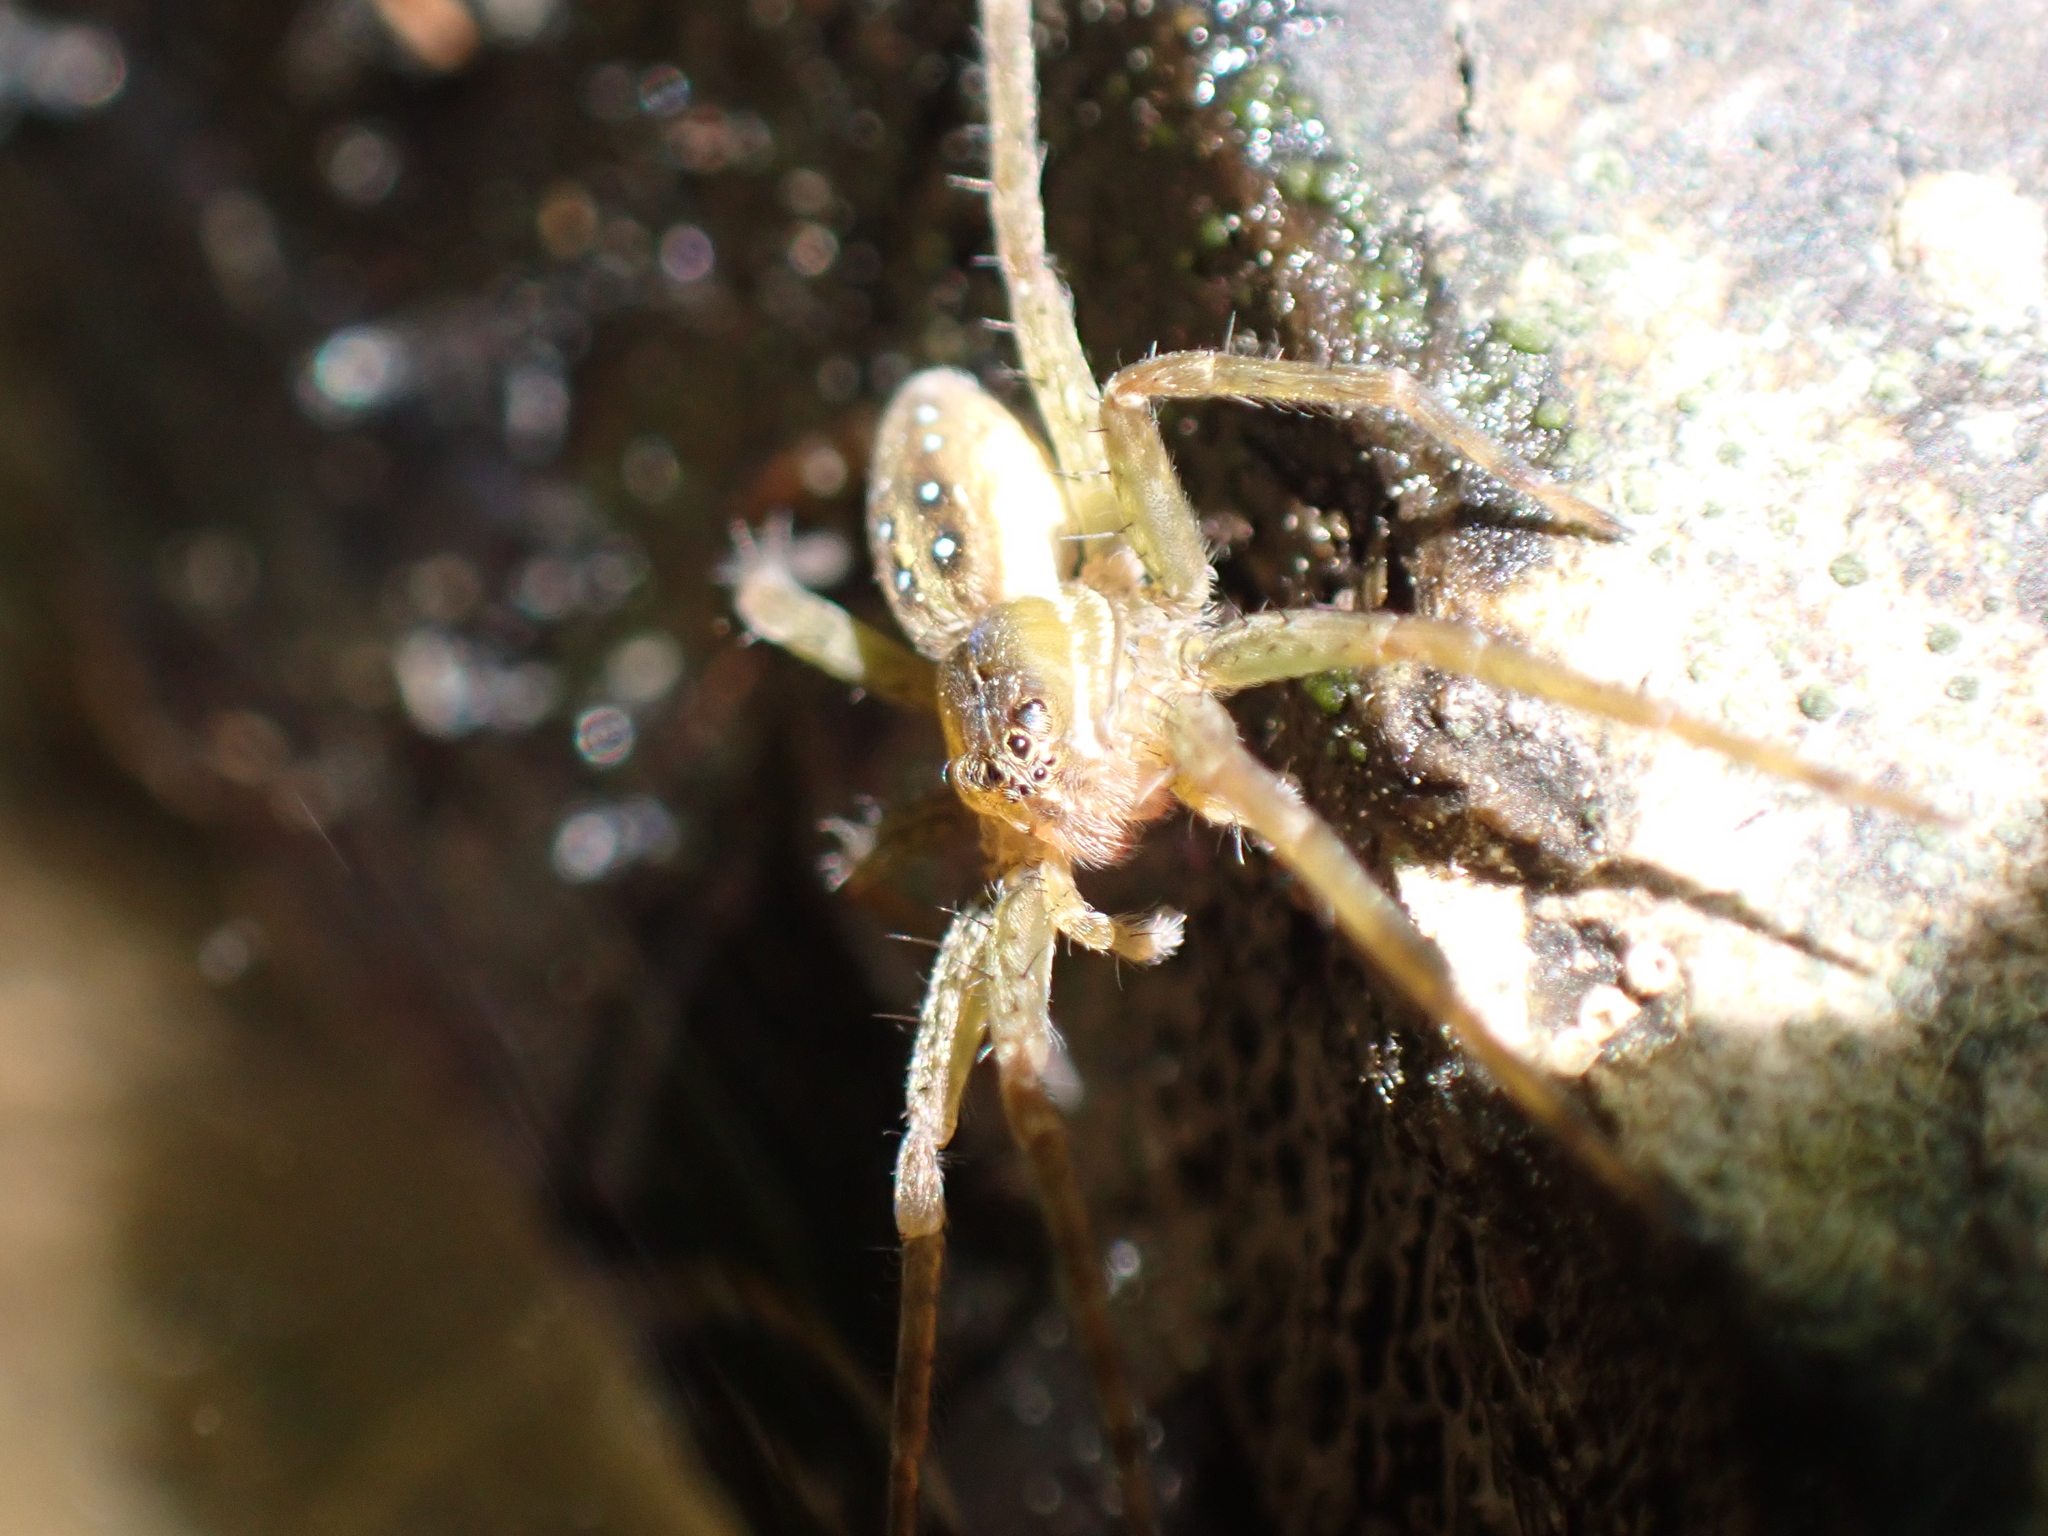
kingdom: Animalia
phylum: Arthropoda
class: Arachnida
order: Araneae
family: Pisauridae
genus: Dolomedes
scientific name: Dolomedes triton
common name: Six-spotted fishing spider
